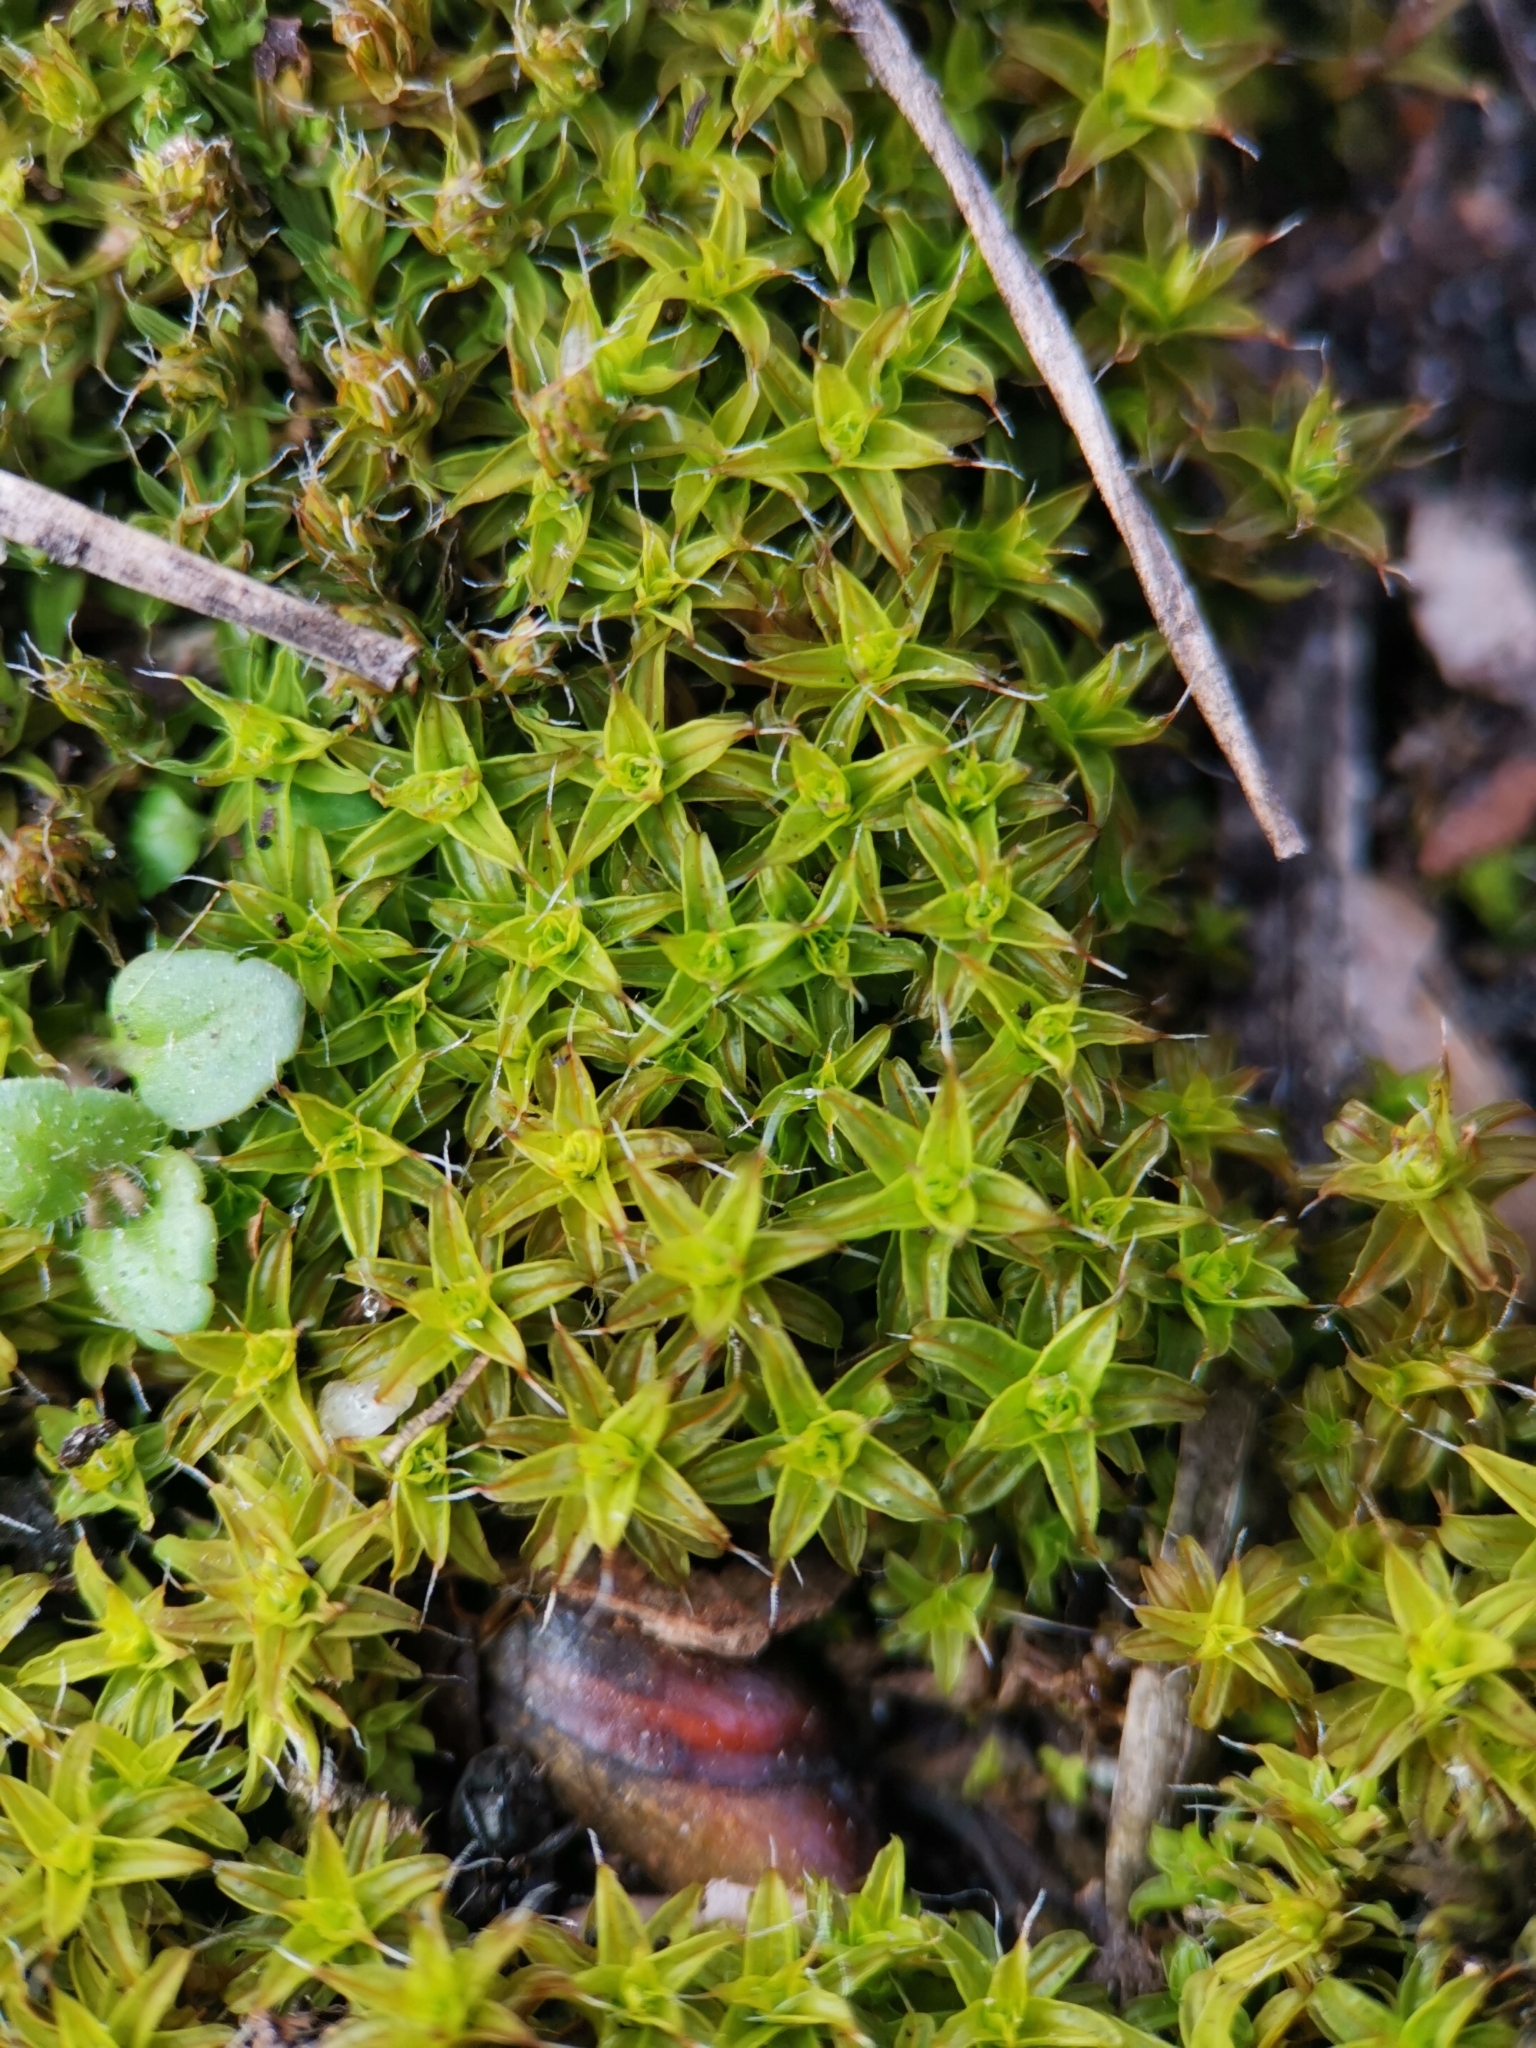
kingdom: Plantae
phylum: Bryophyta
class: Bryopsida
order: Pottiales
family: Pottiaceae
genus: Syntrichia
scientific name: Syntrichia ruralis
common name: Sidewalk screw moss
